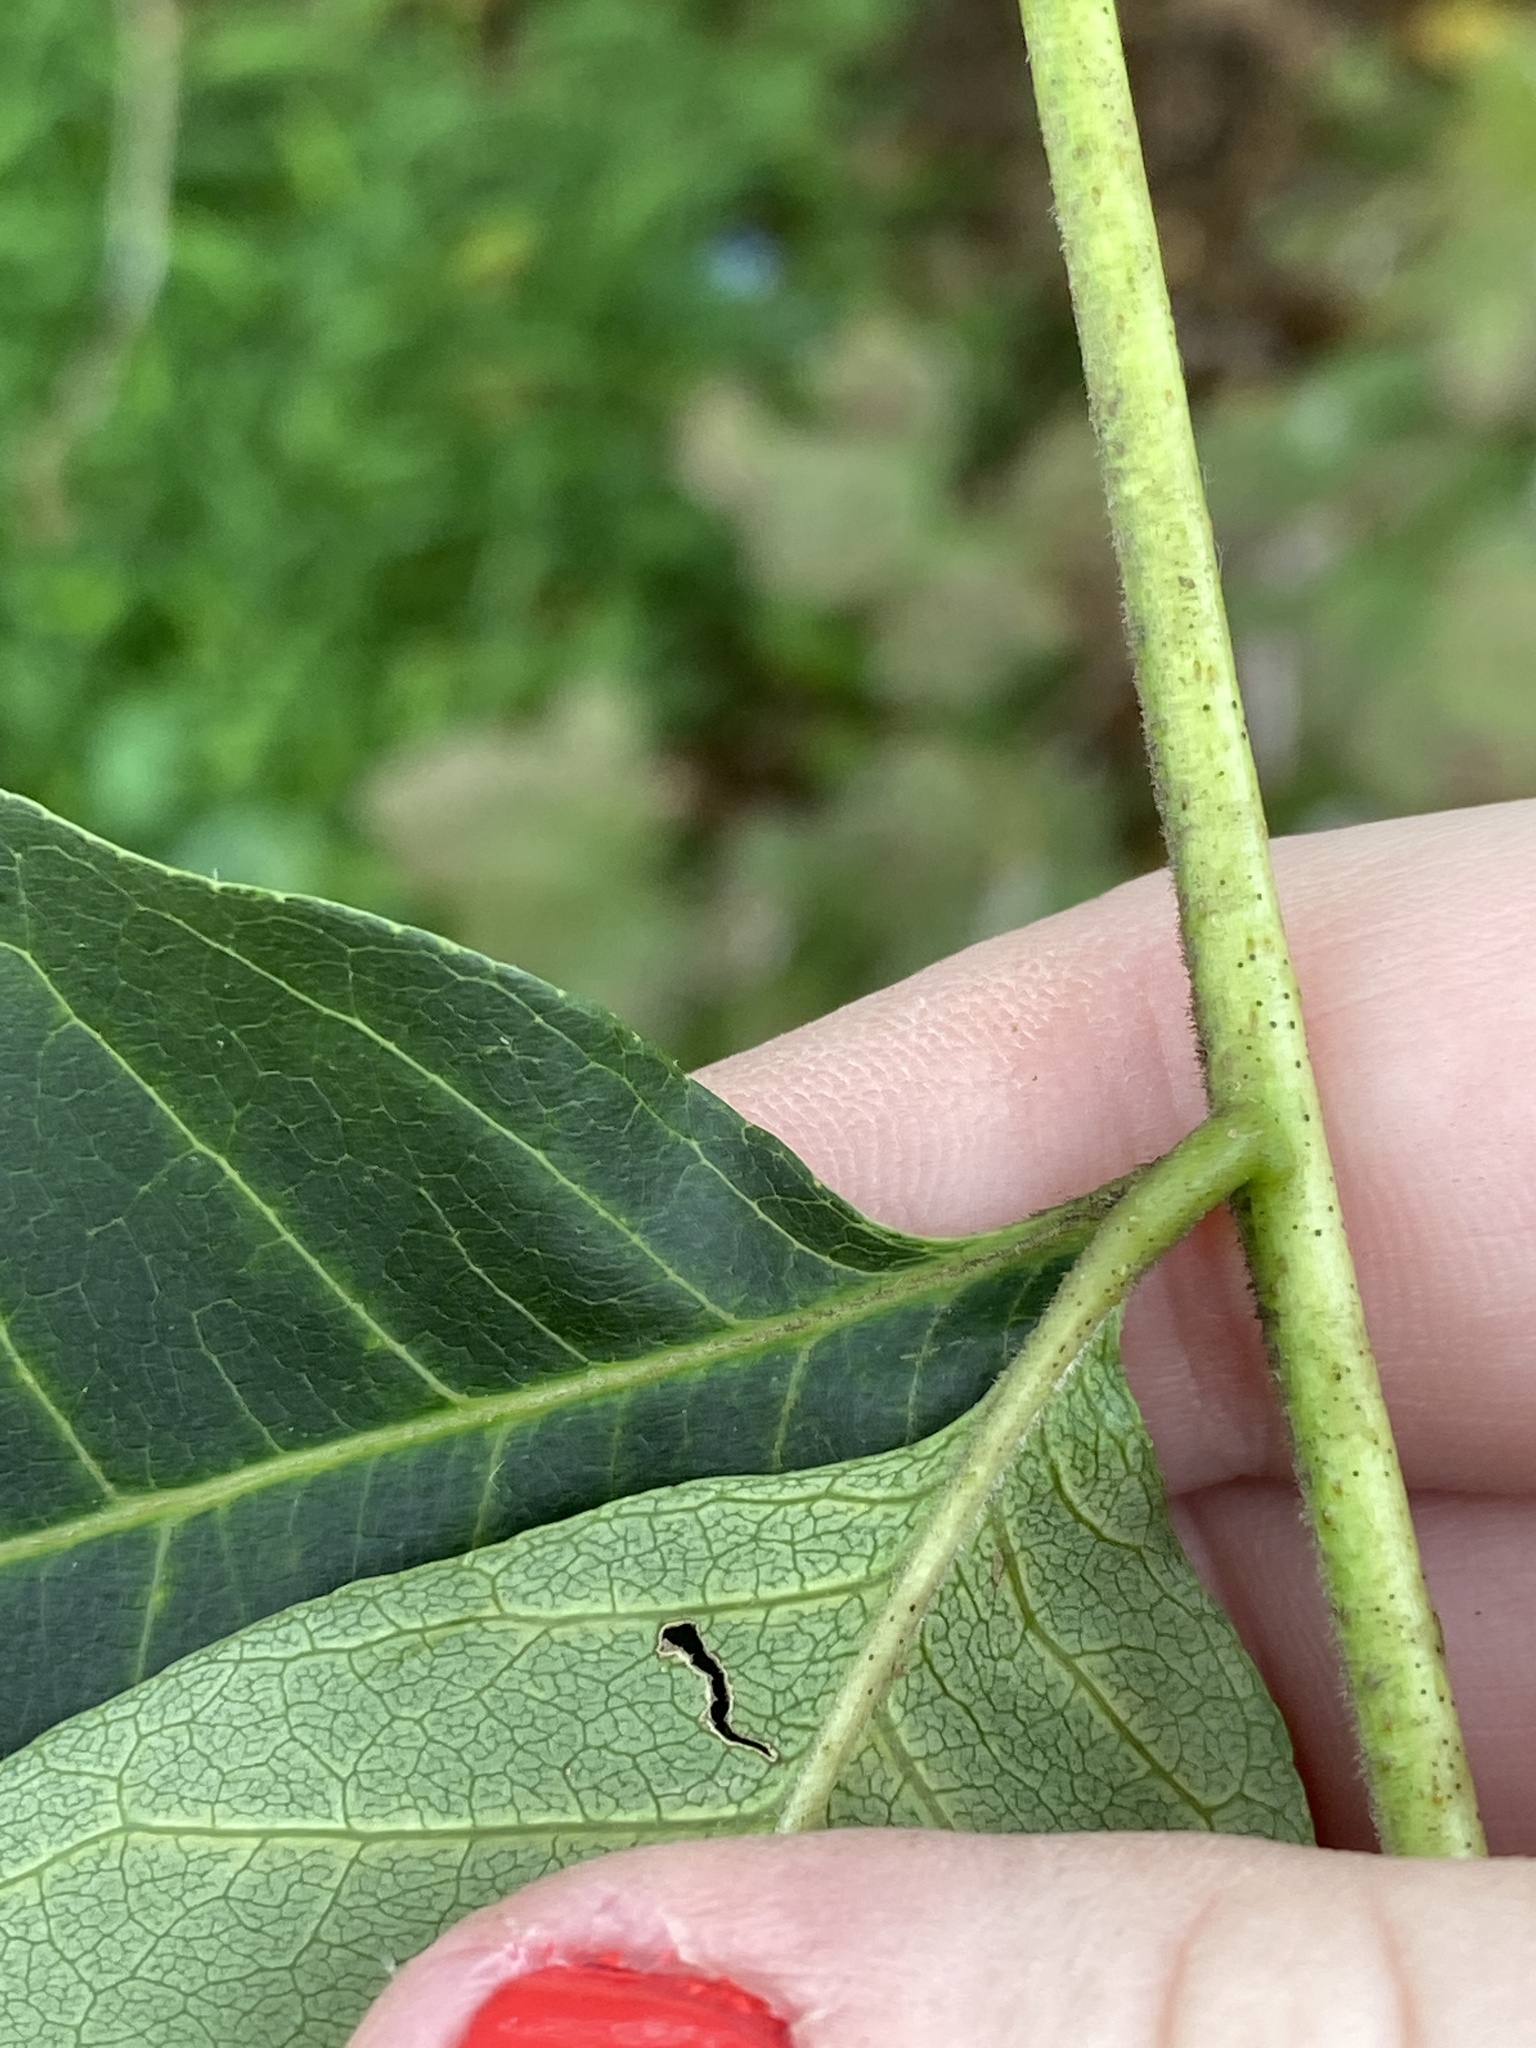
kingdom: Plantae
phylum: Tracheophyta
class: Magnoliopsida
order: Sapindales
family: Rutaceae
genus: Phellodendron
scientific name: Phellodendron amurense
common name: Amur corktree
